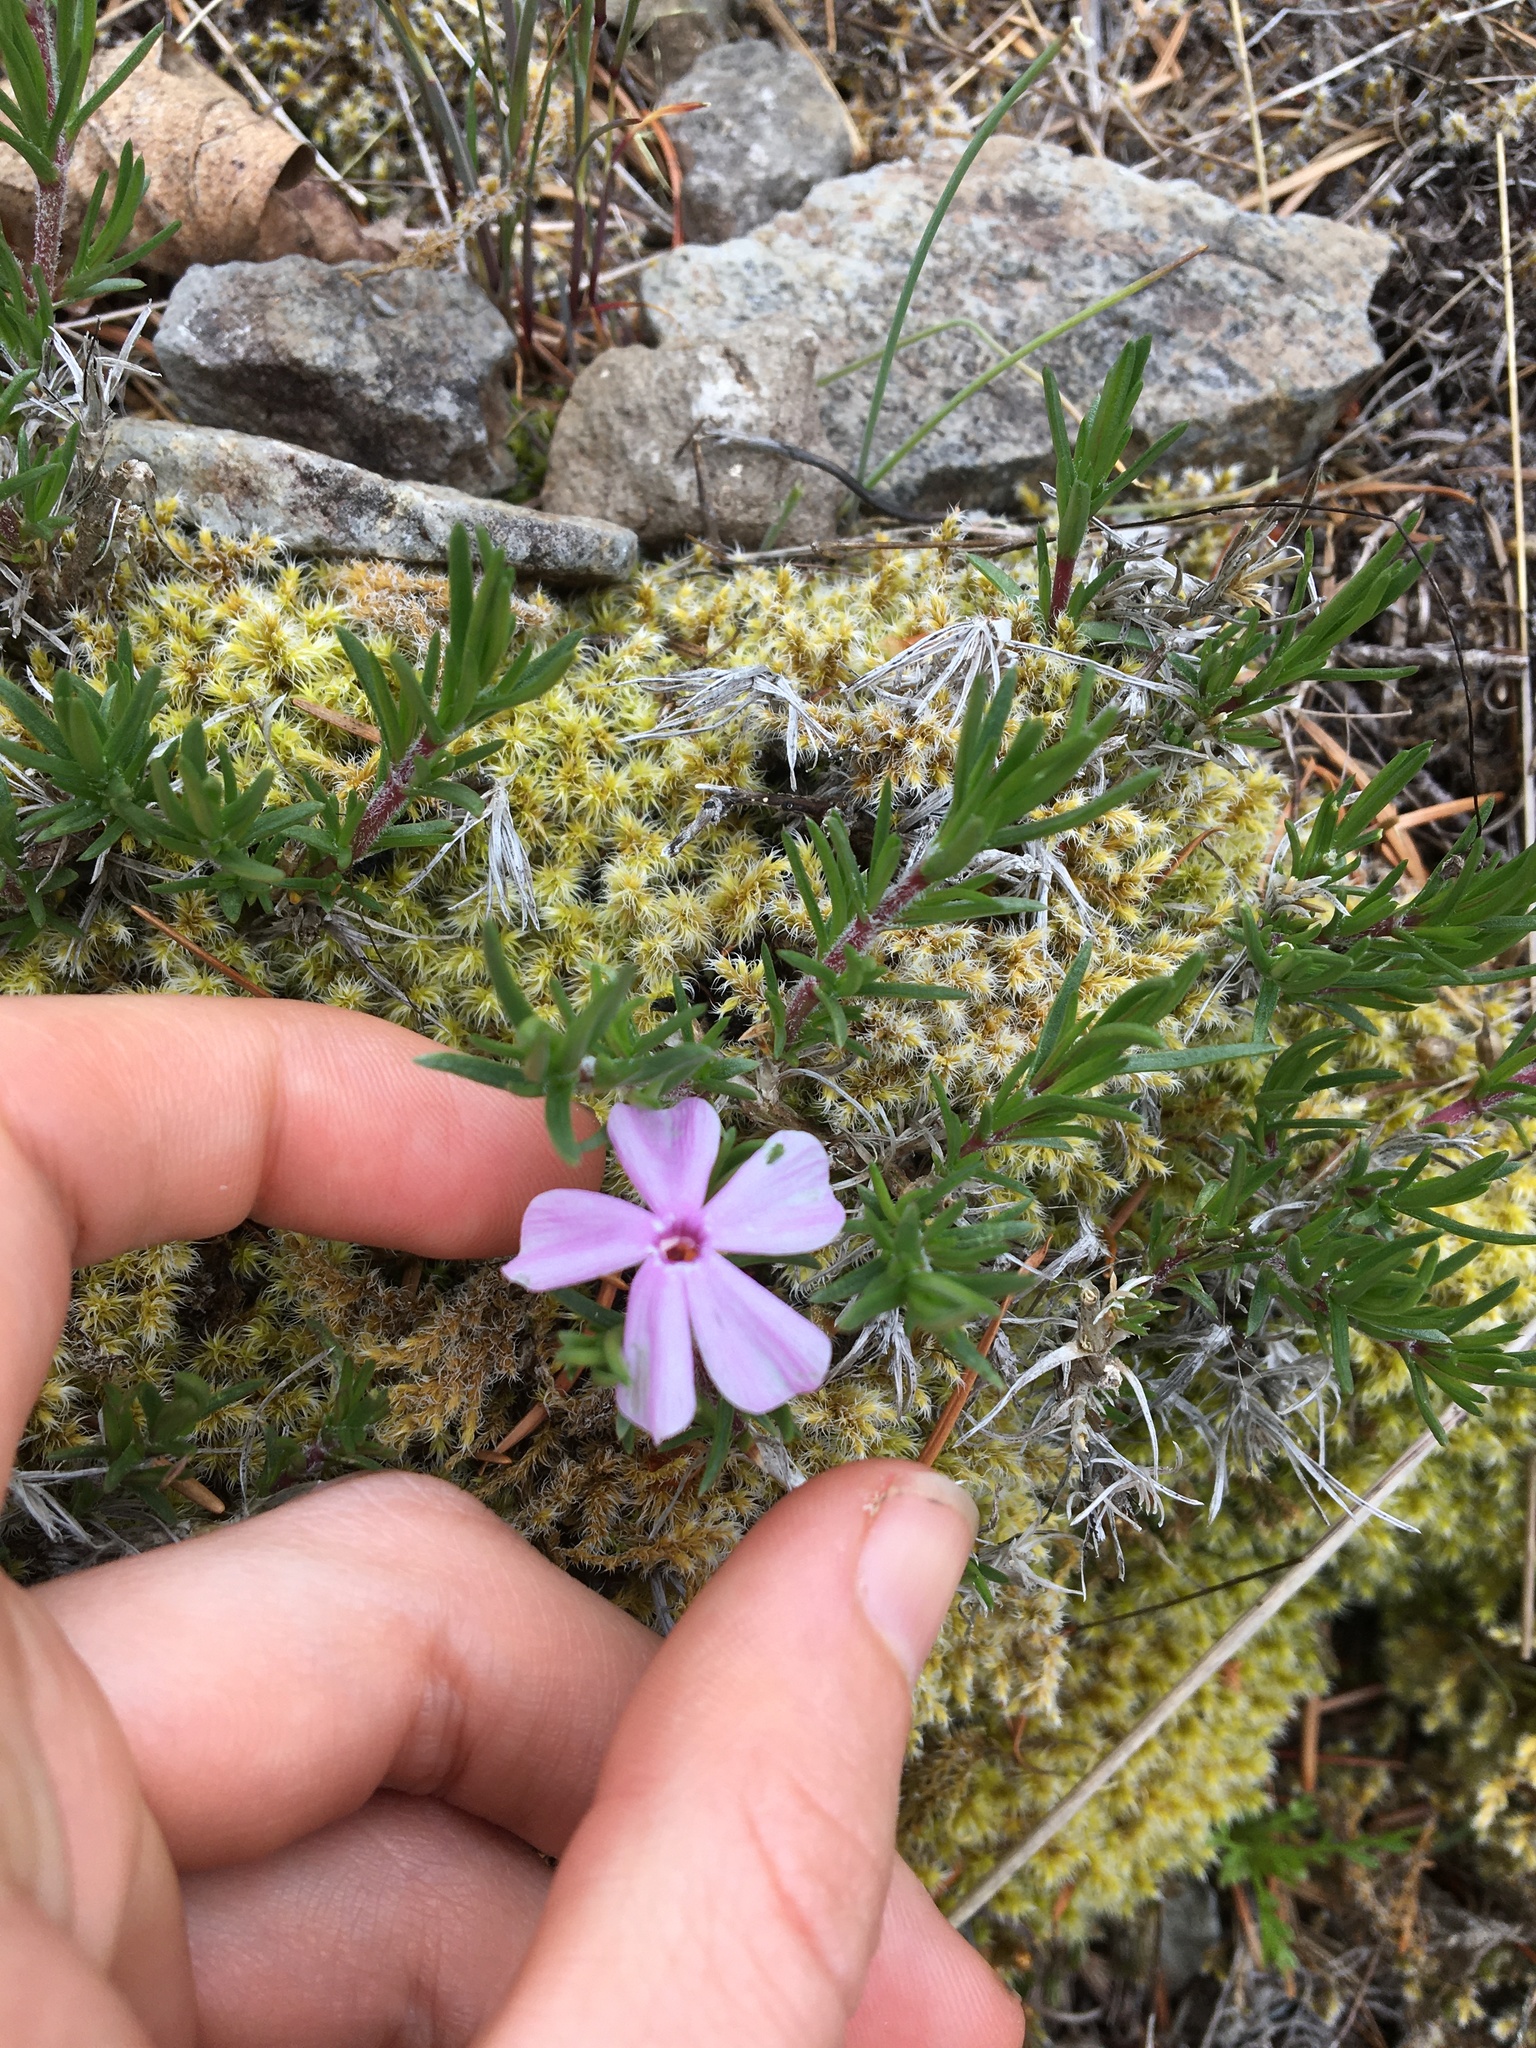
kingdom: Plantae
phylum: Tracheophyta
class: Magnoliopsida
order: Ericales
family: Polemoniaceae
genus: Phlox
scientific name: Phlox diffusa
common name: Mat phlox
